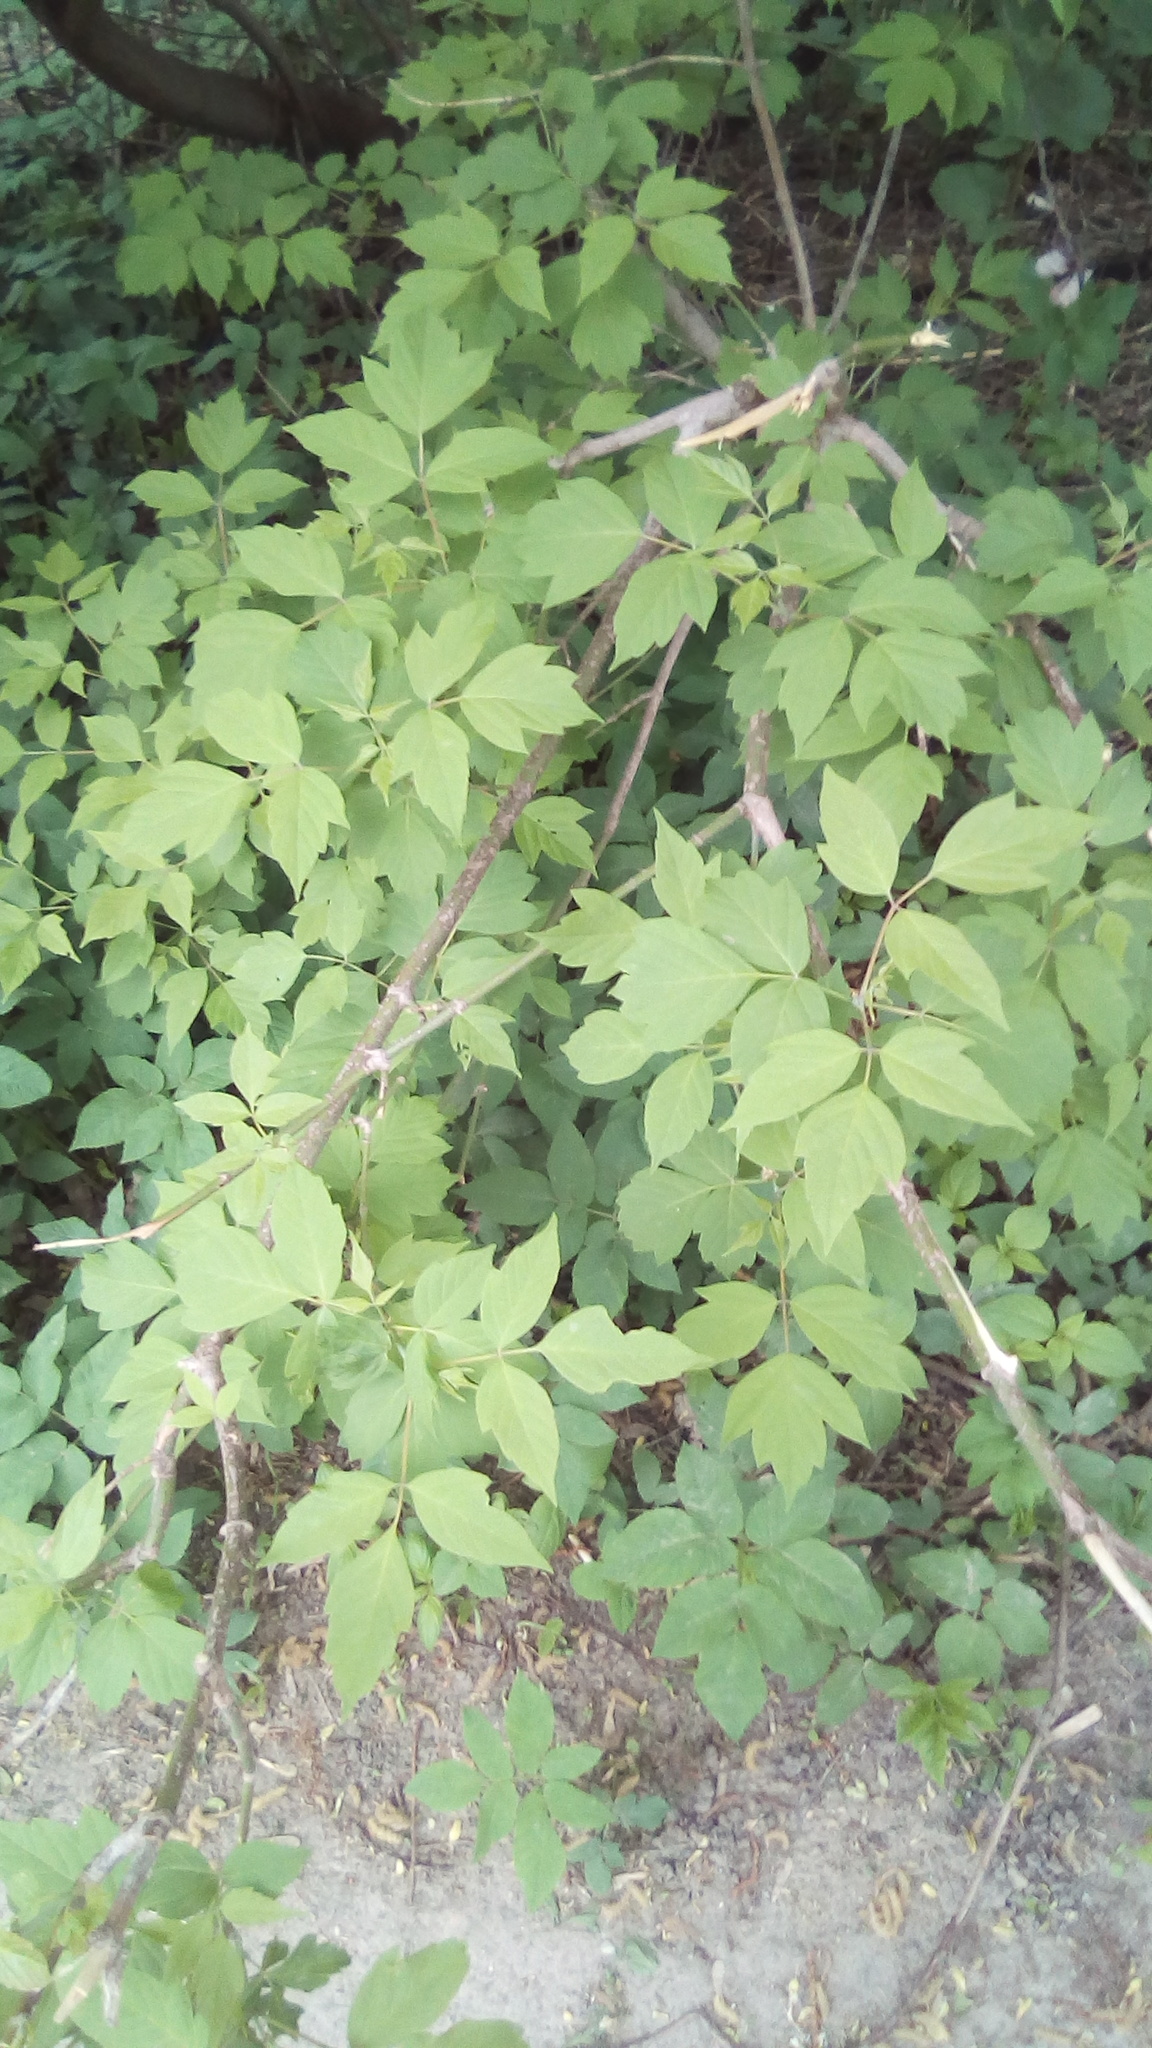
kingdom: Plantae
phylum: Tracheophyta
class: Magnoliopsida
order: Sapindales
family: Sapindaceae
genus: Acer
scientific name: Acer negundo
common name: Ashleaf maple
